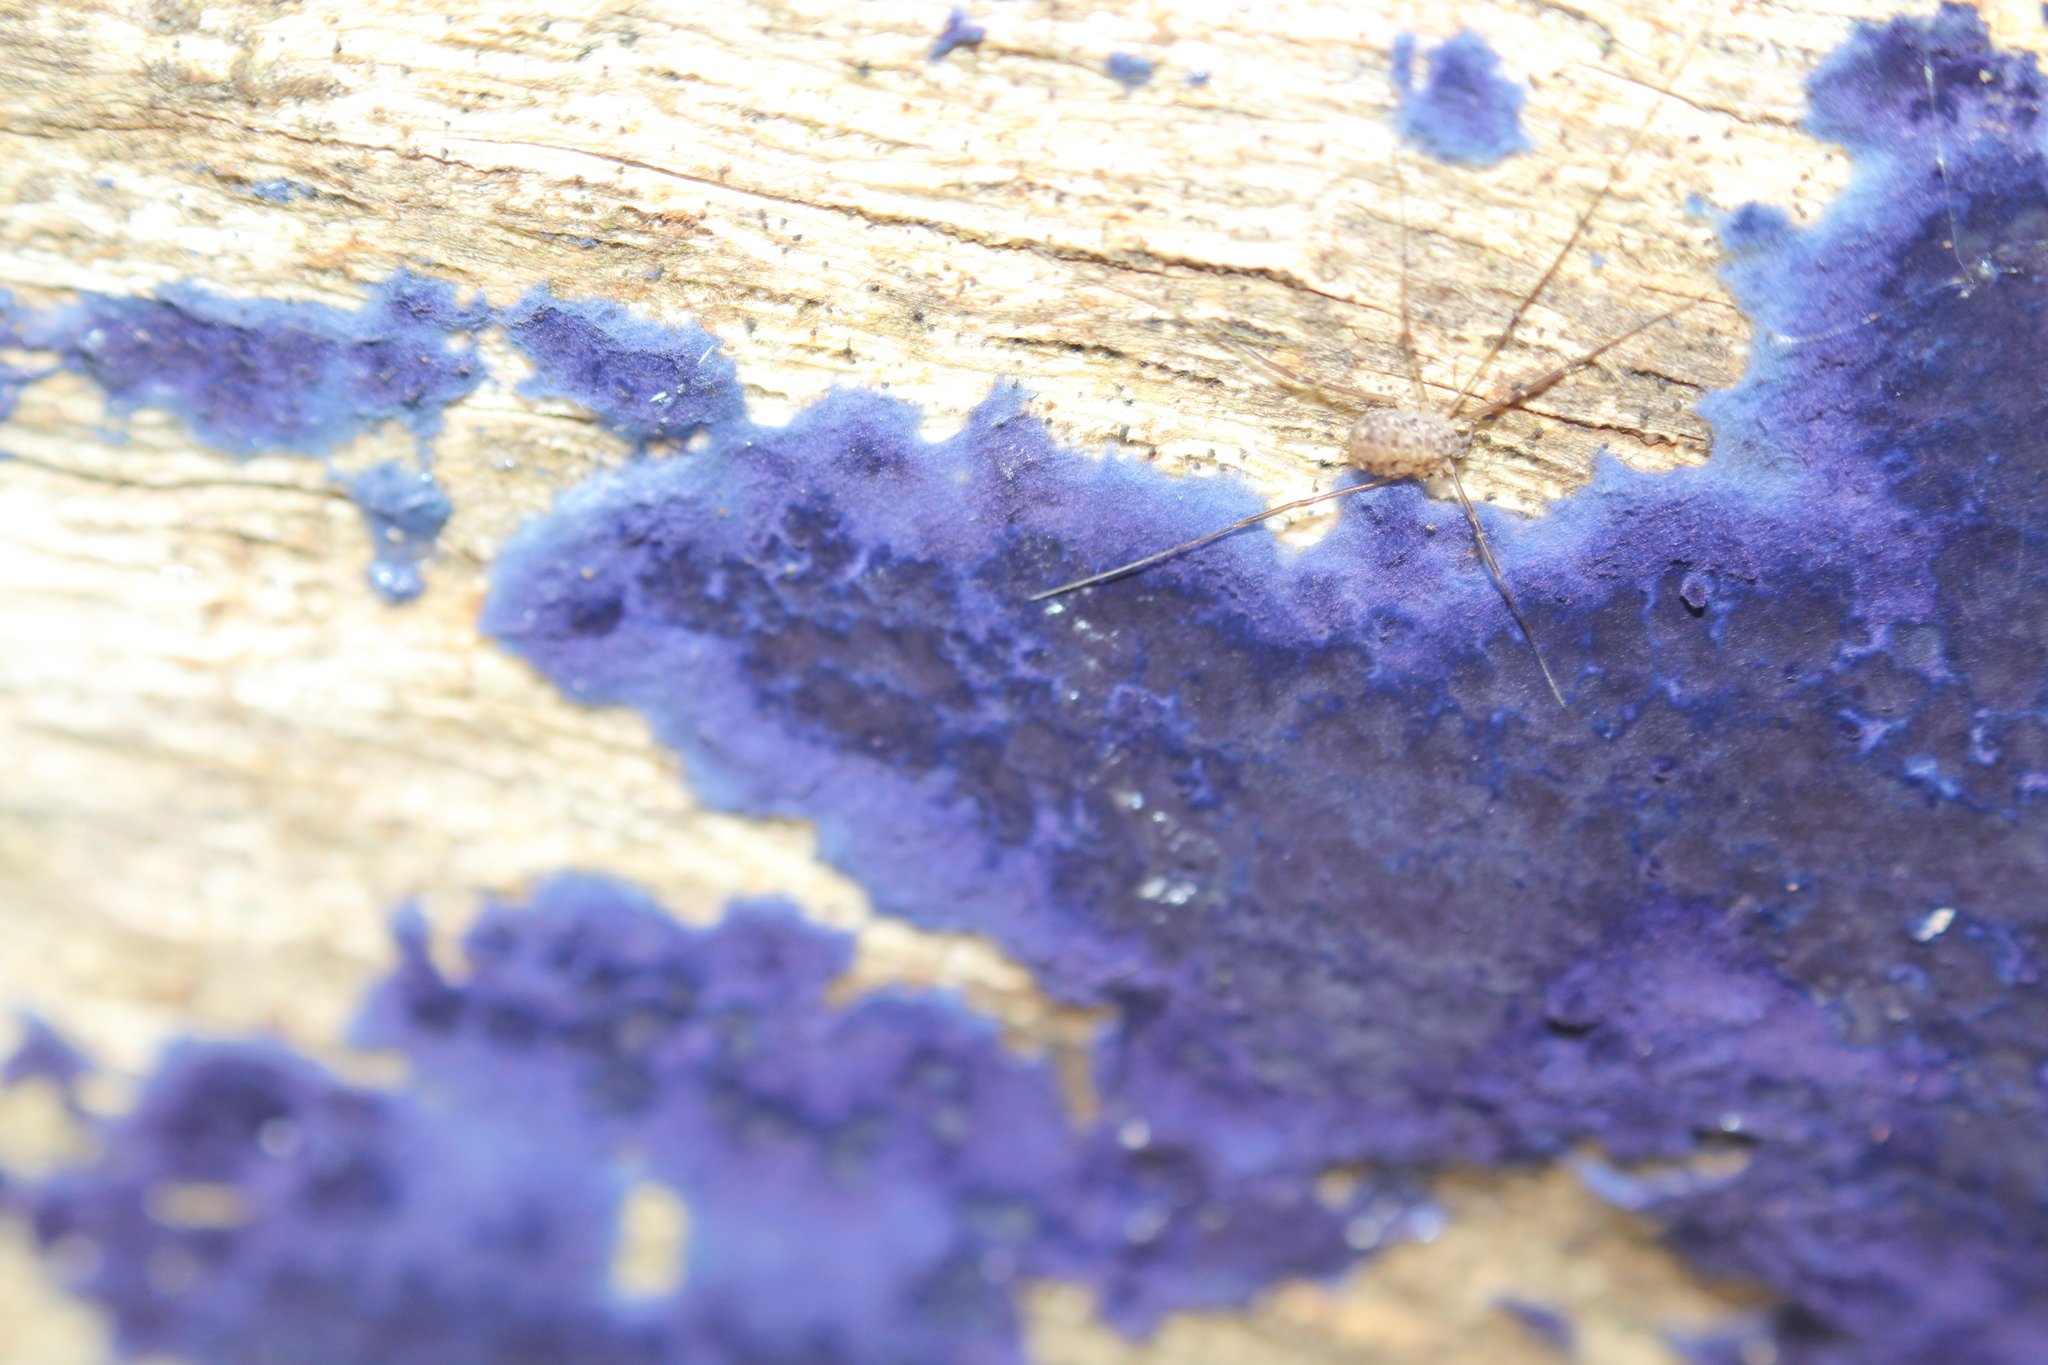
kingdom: Fungi
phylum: Basidiomycota
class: Agaricomycetes
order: Polyporales
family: Phanerochaetaceae
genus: Terana
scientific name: Terana coerulea
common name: Cobalt crust
